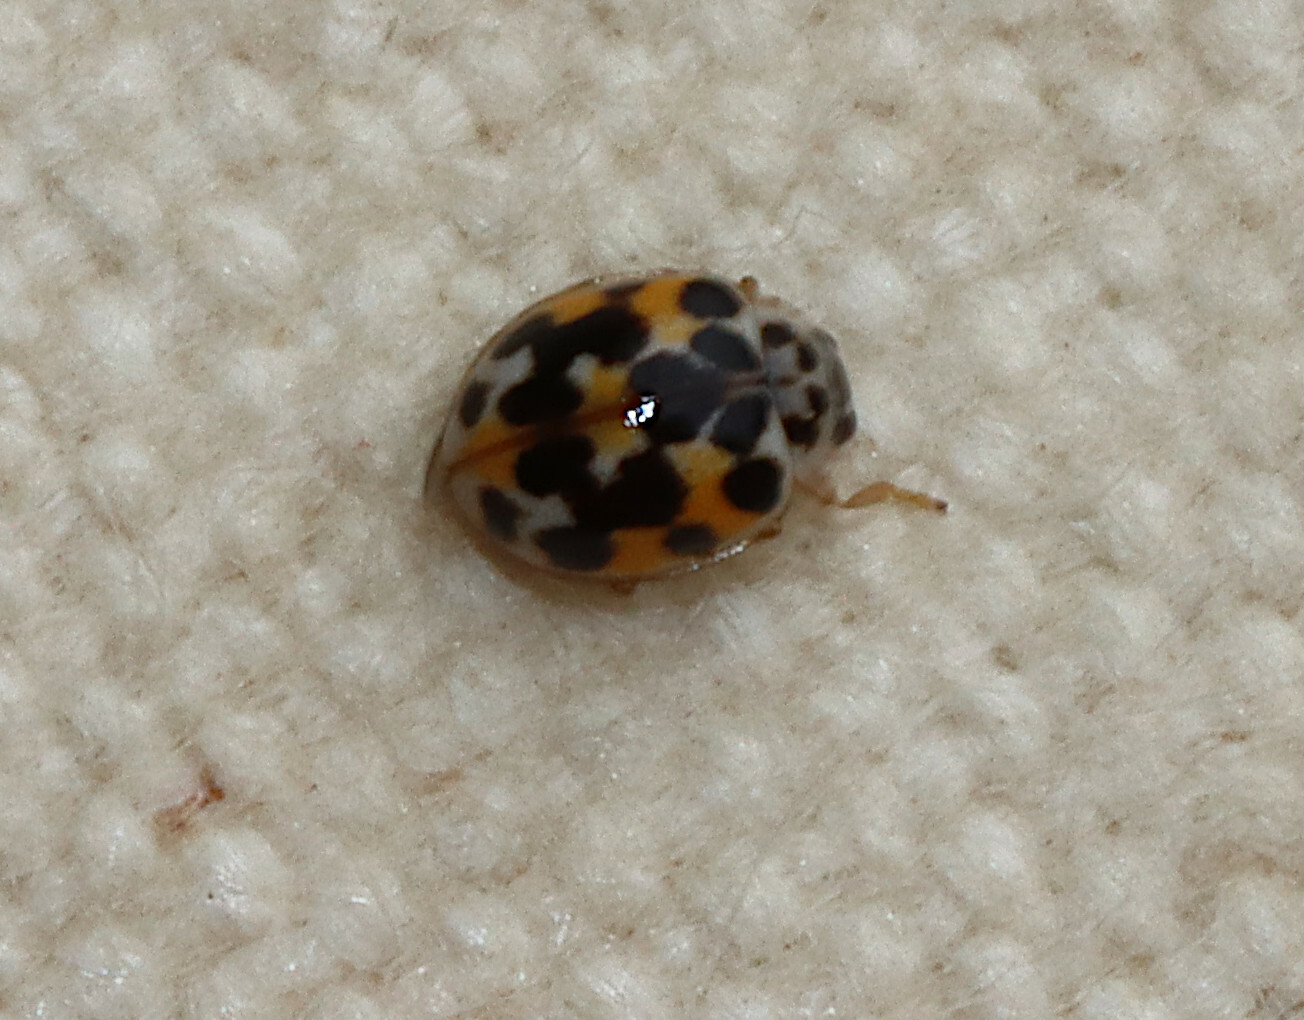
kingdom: Animalia
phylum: Arthropoda
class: Insecta
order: Coleoptera
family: Coccinellidae
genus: Psyllobora
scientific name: Psyllobora vigintimaculata
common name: Ladybird beetle
